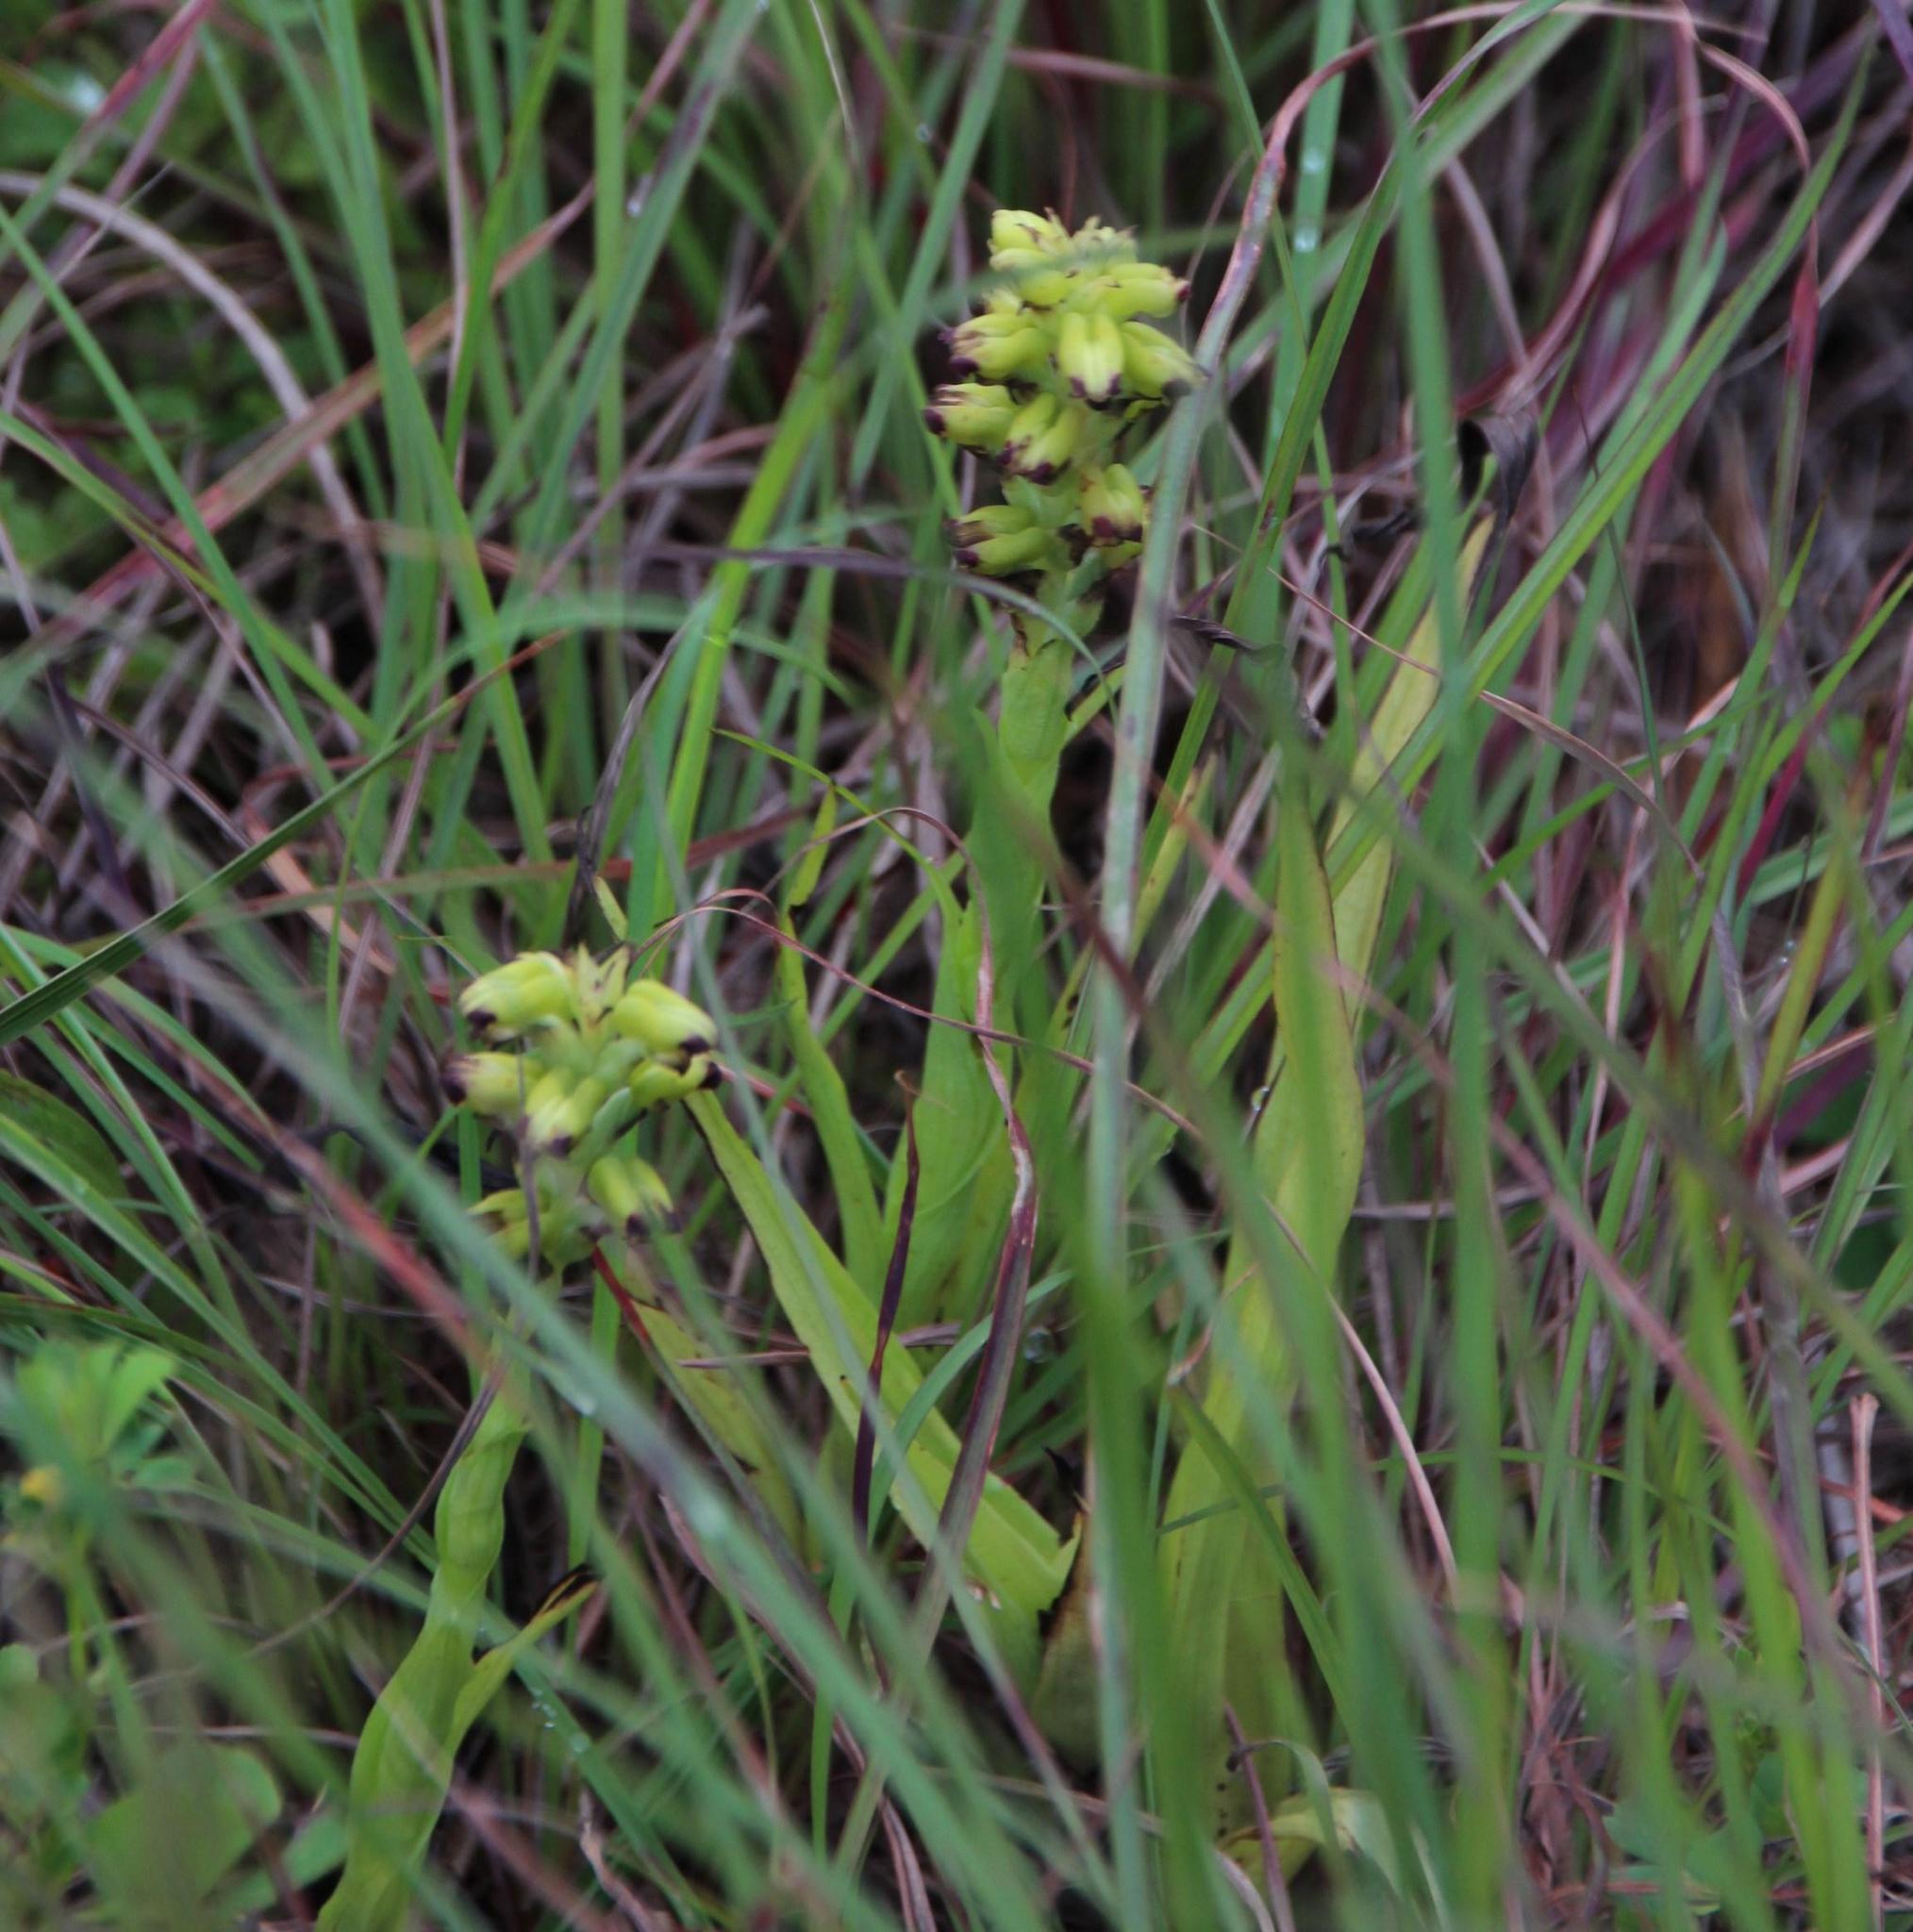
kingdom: Plantae
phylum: Tracheophyta
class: Liliopsida
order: Asparagales
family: Orchidaceae
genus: Corycium
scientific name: Corycium orobanchoides
